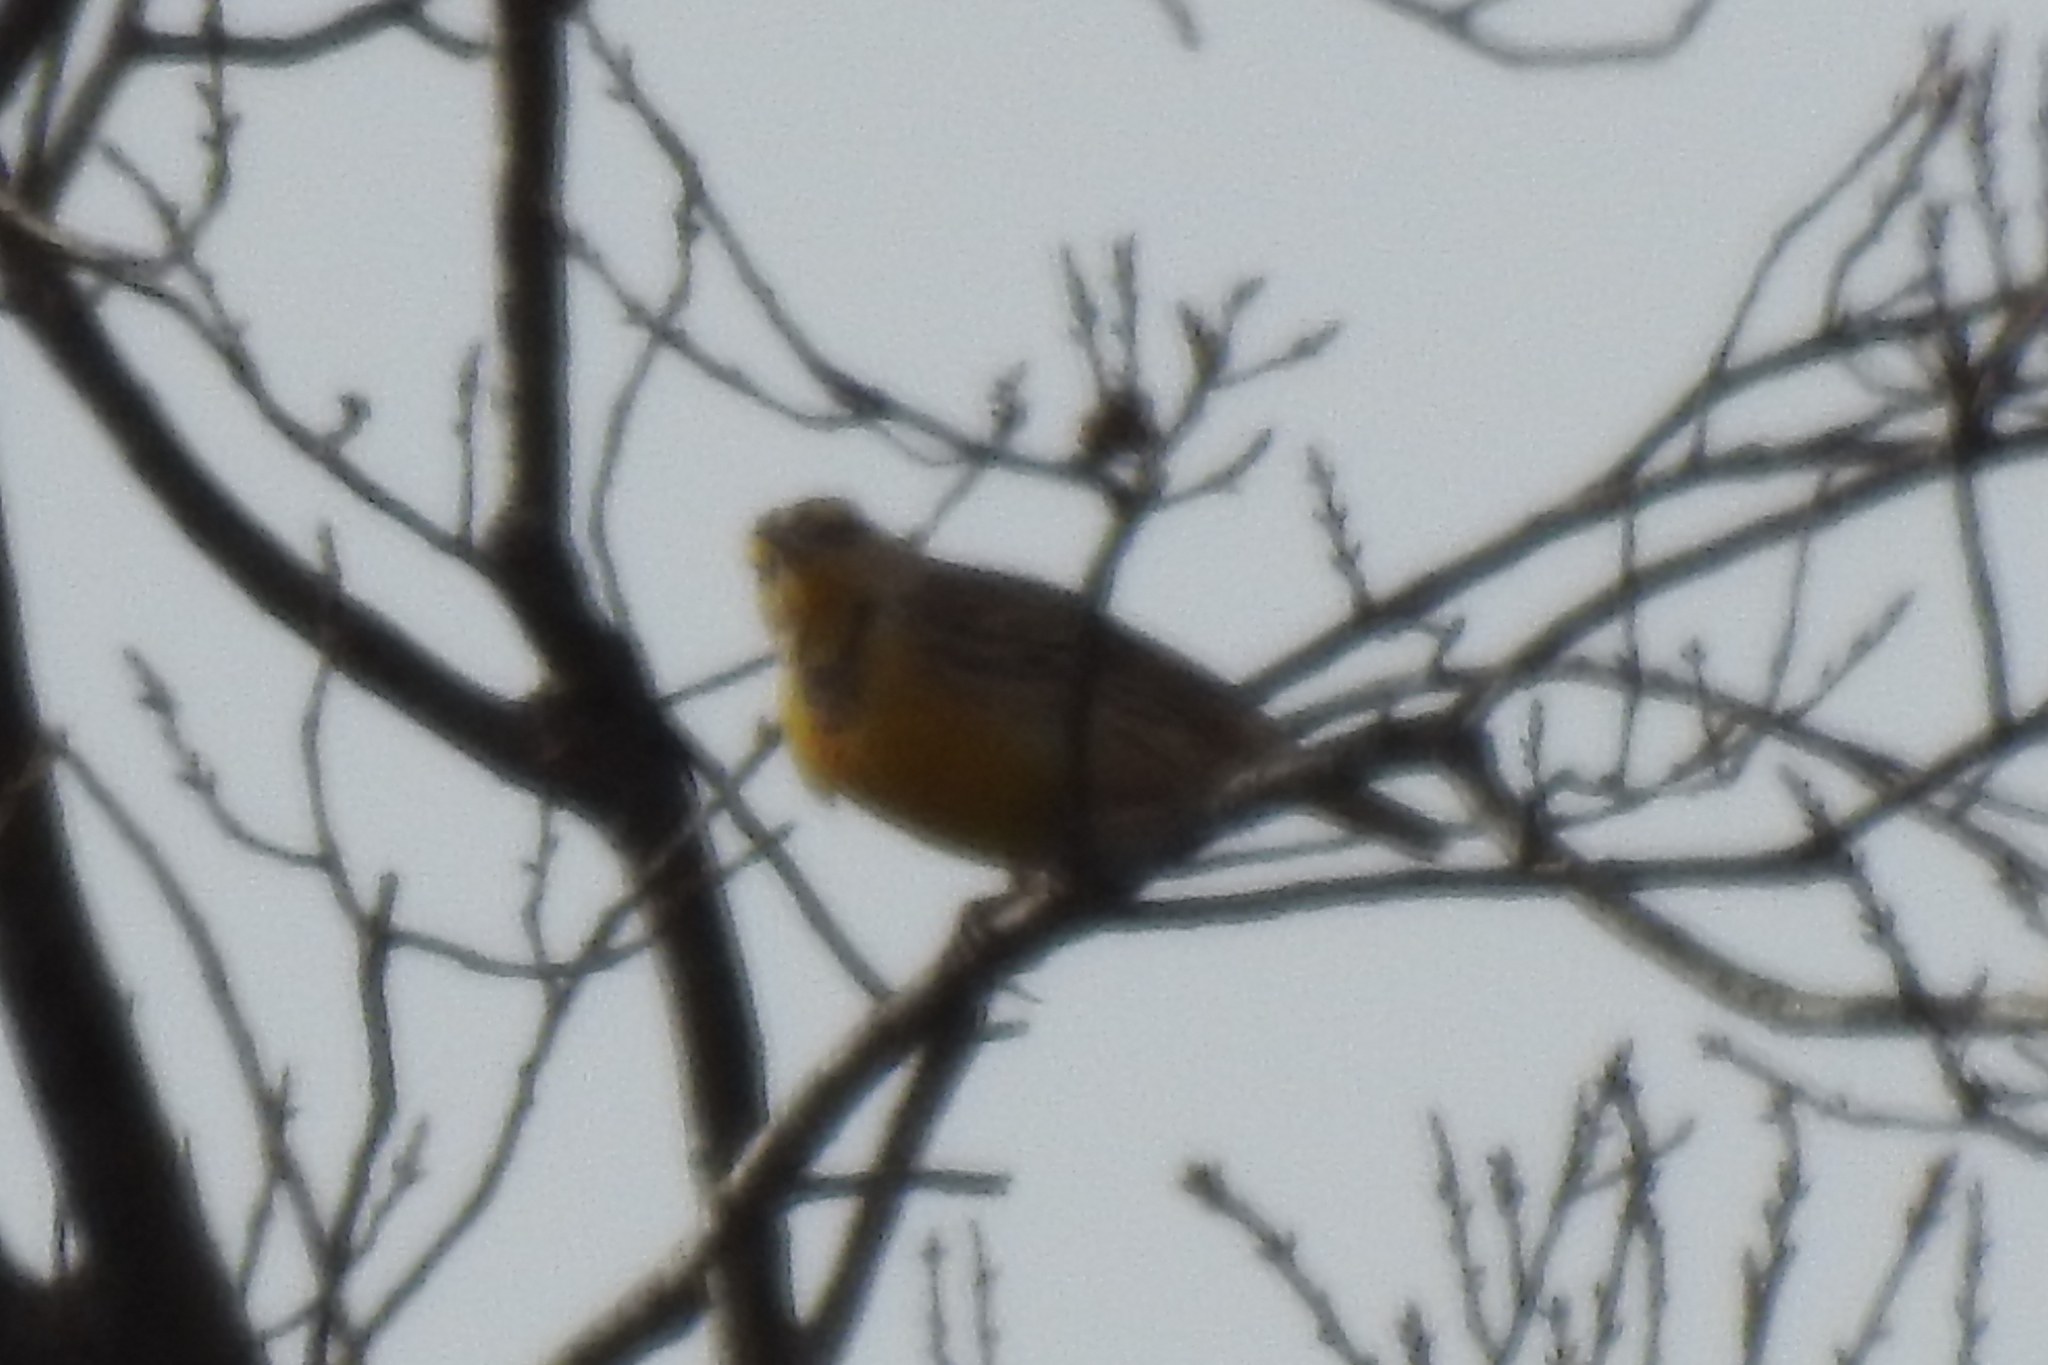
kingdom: Animalia
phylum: Chordata
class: Aves
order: Passeriformes
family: Icteridae
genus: Sturnella
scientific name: Sturnella magna
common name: Eastern meadowlark
